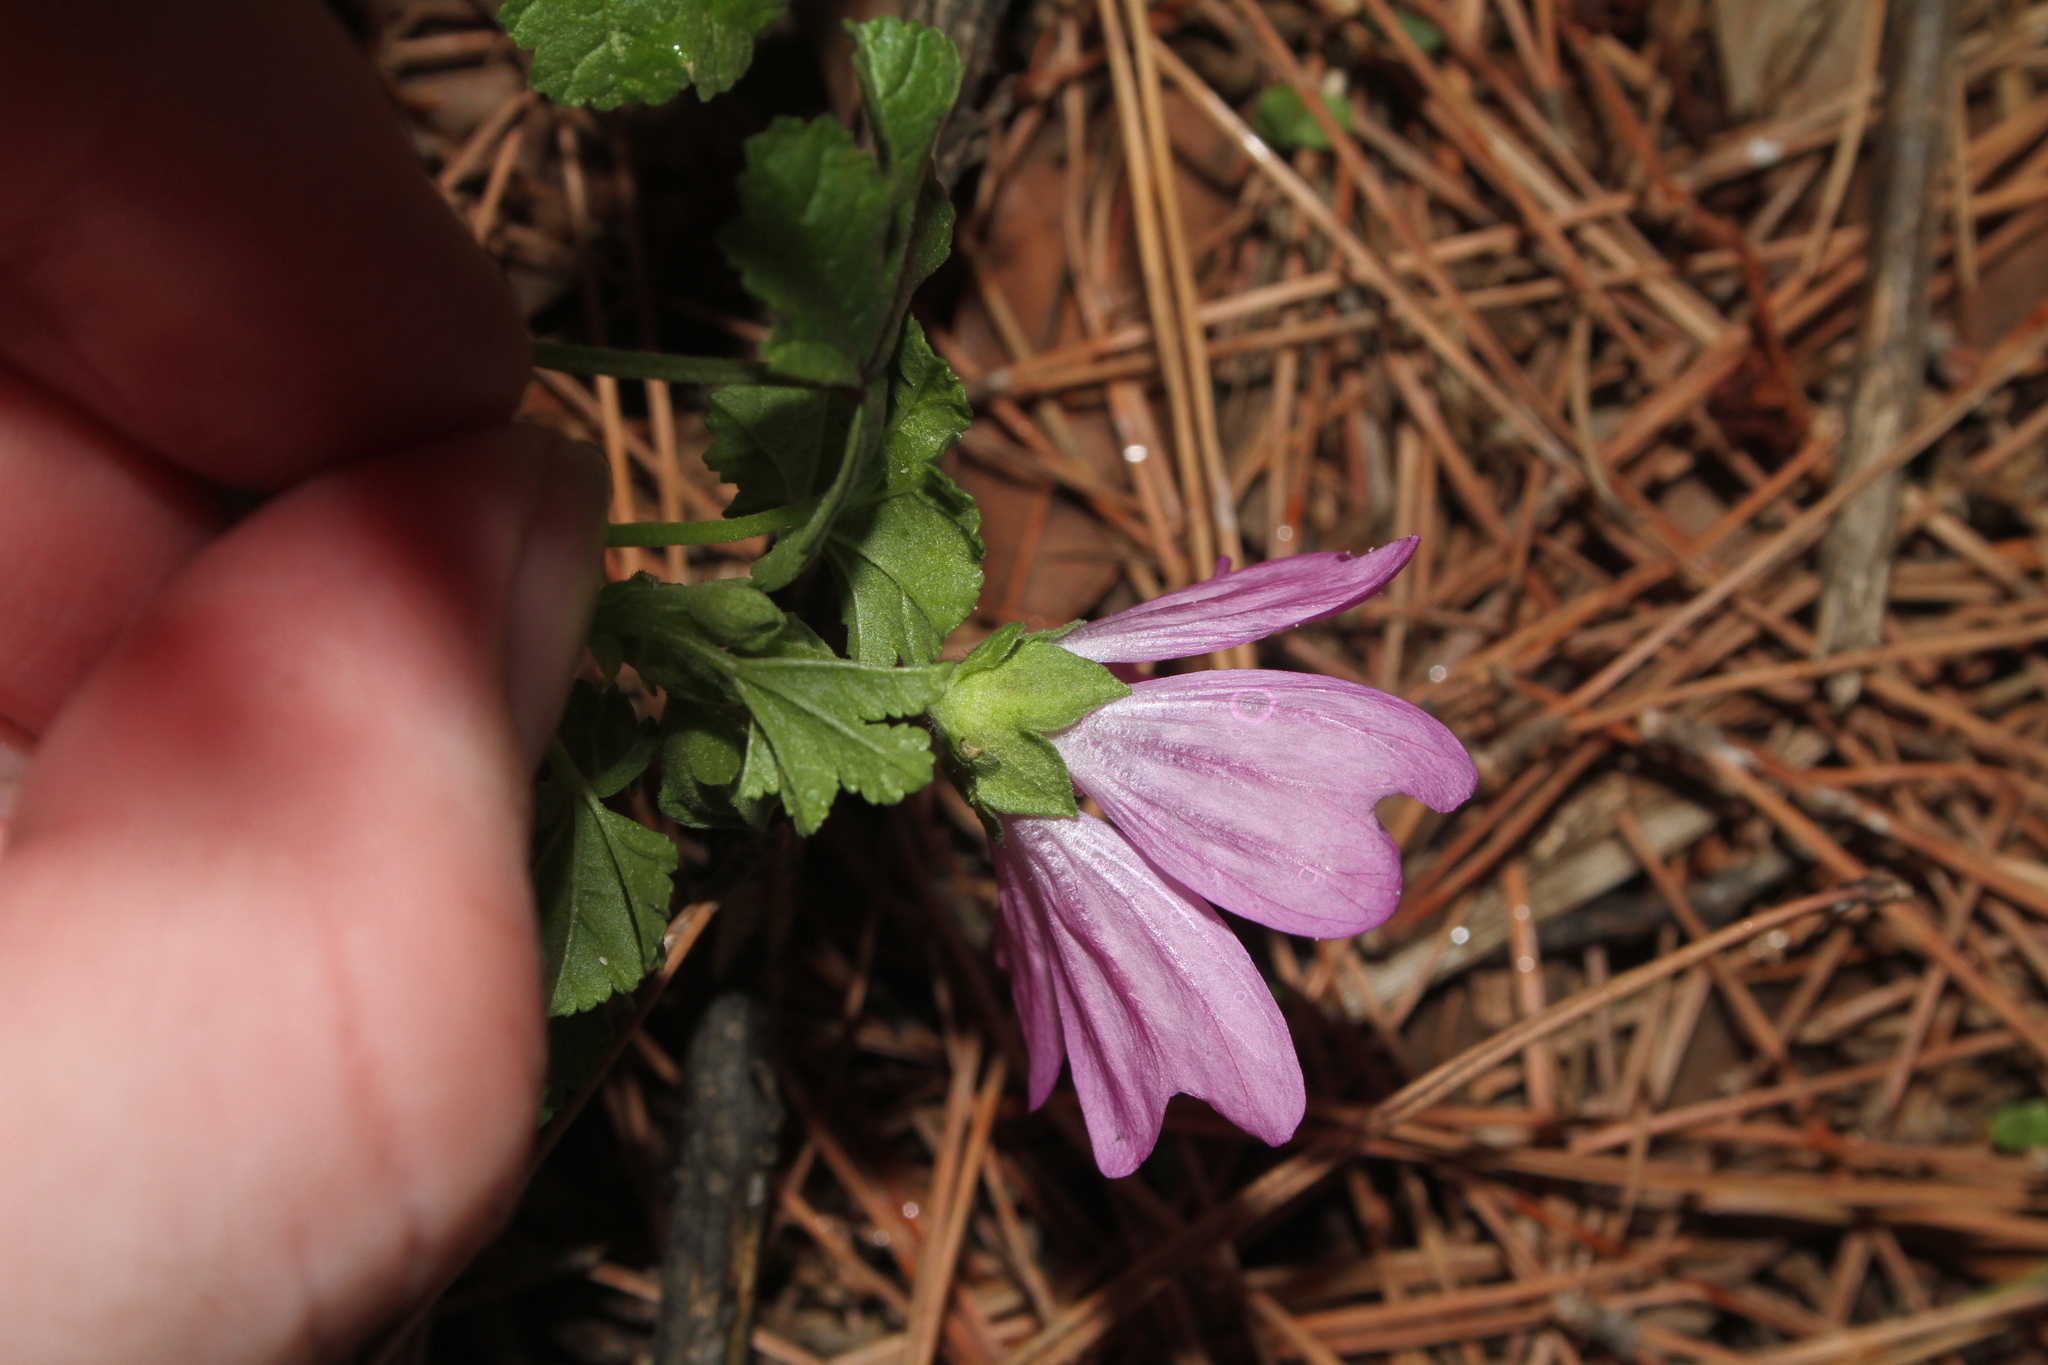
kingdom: Plantae
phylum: Tracheophyta
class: Magnoliopsida
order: Malvales
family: Malvaceae
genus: Malva
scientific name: Malva sylvestris
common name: Common mallow
